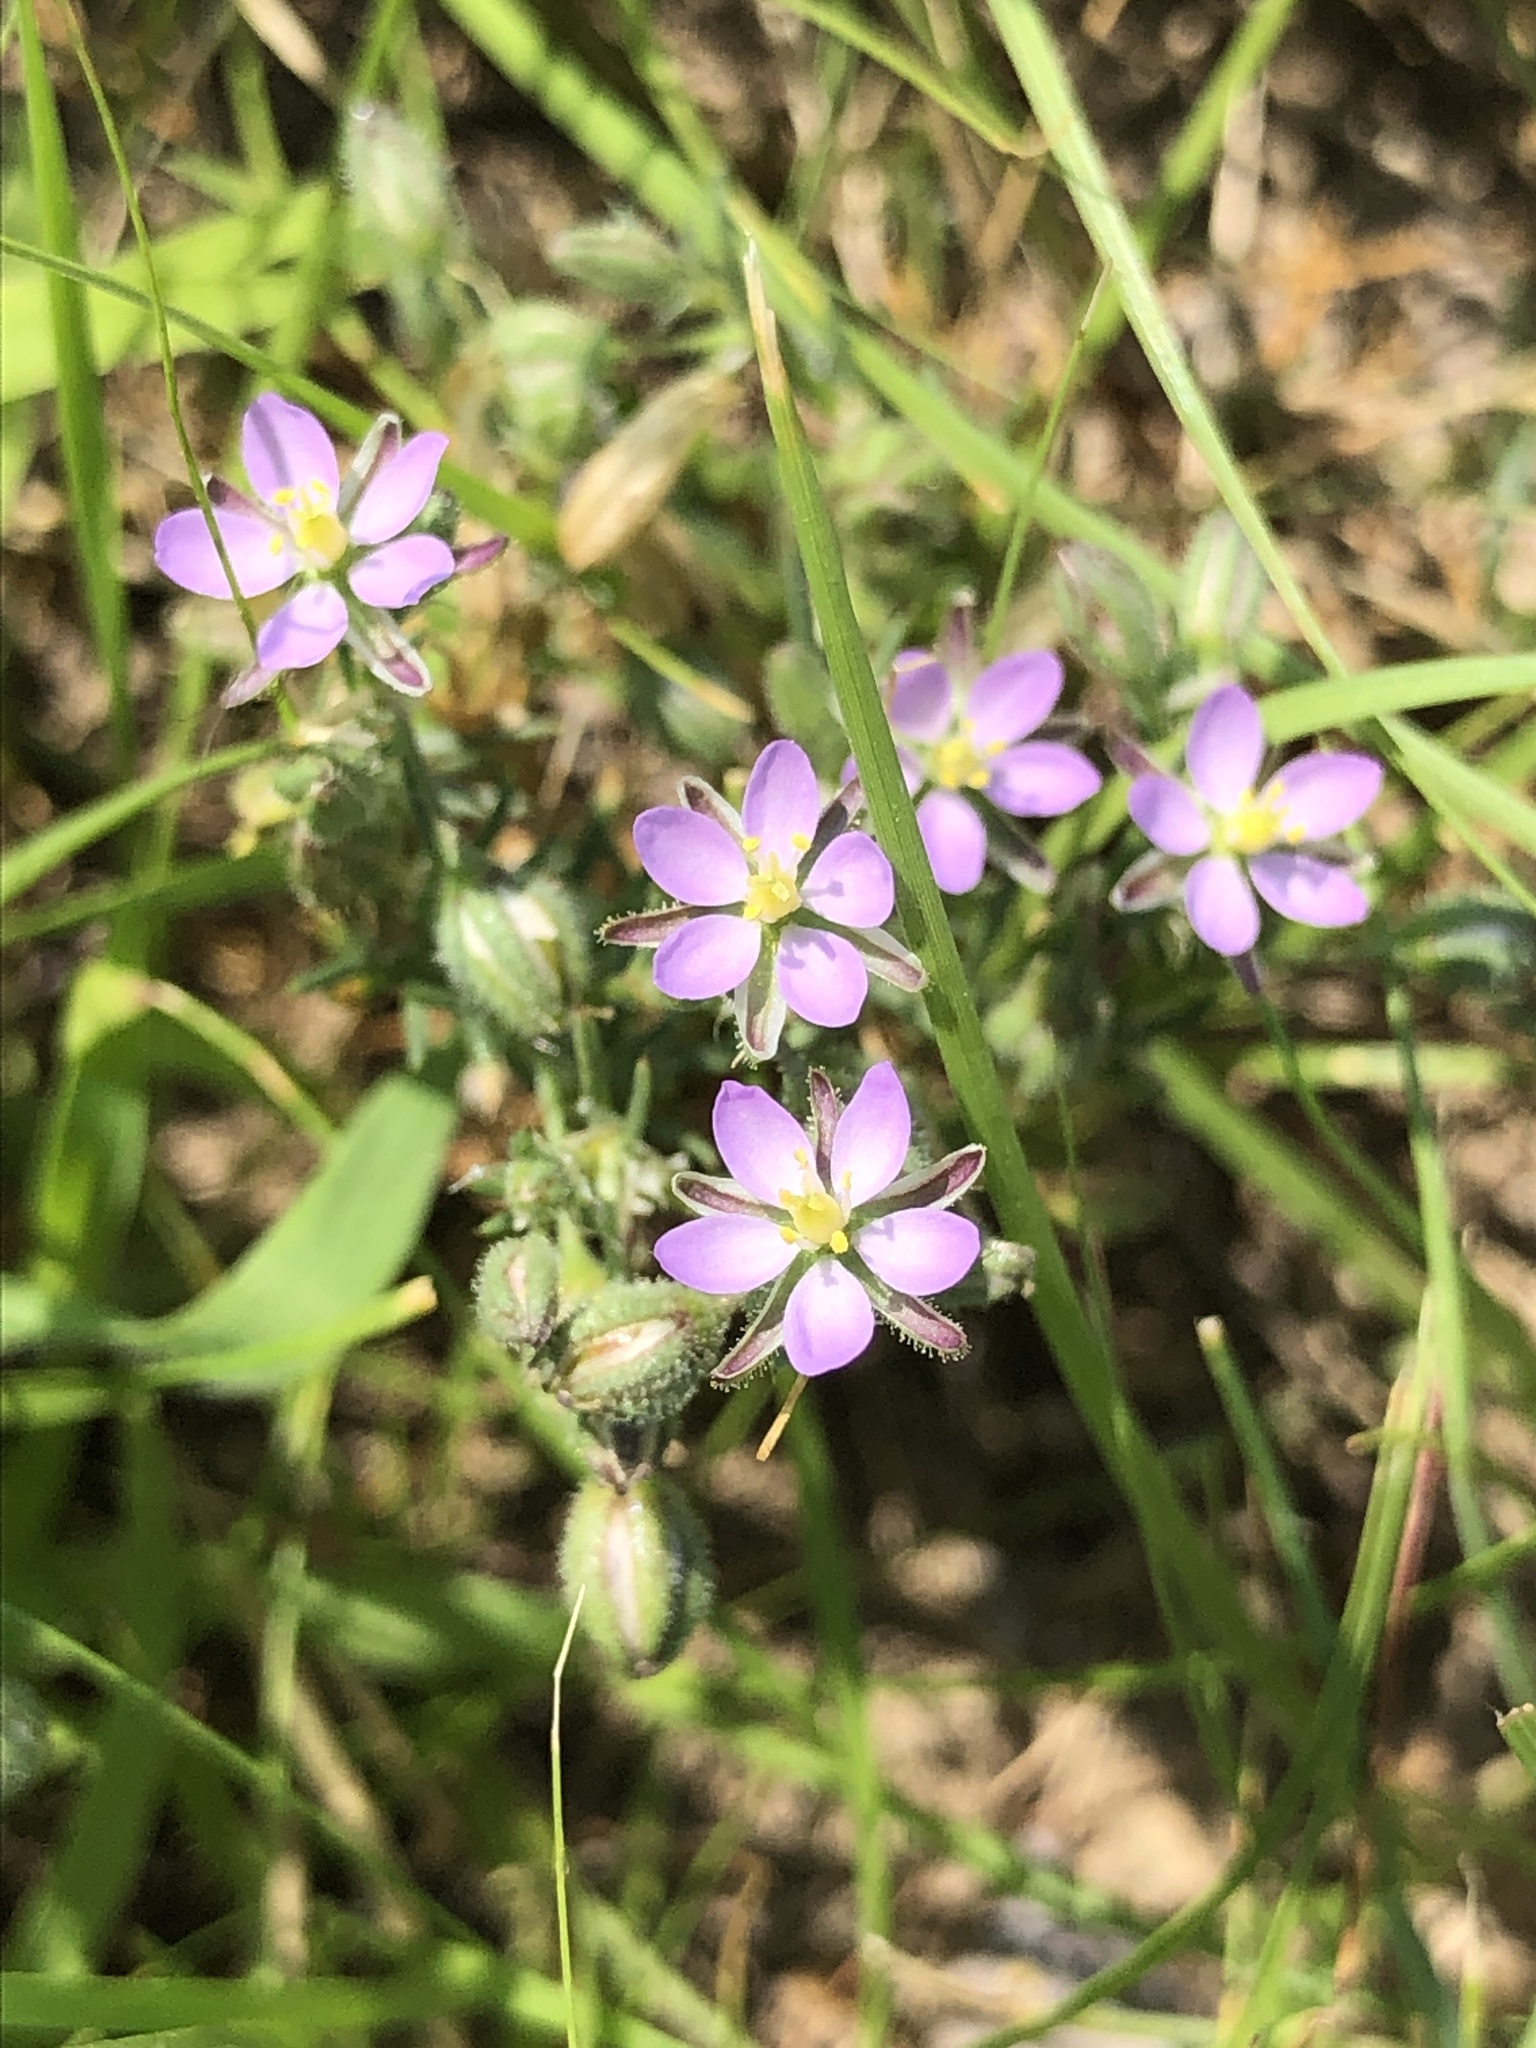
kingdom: Plantae
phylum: Tracheophyta
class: Magnoliopsida
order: Caryophyllales
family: Caryophyllaceae
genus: Spergularia
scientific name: Spergularia rubra
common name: Red sand-spurrey
